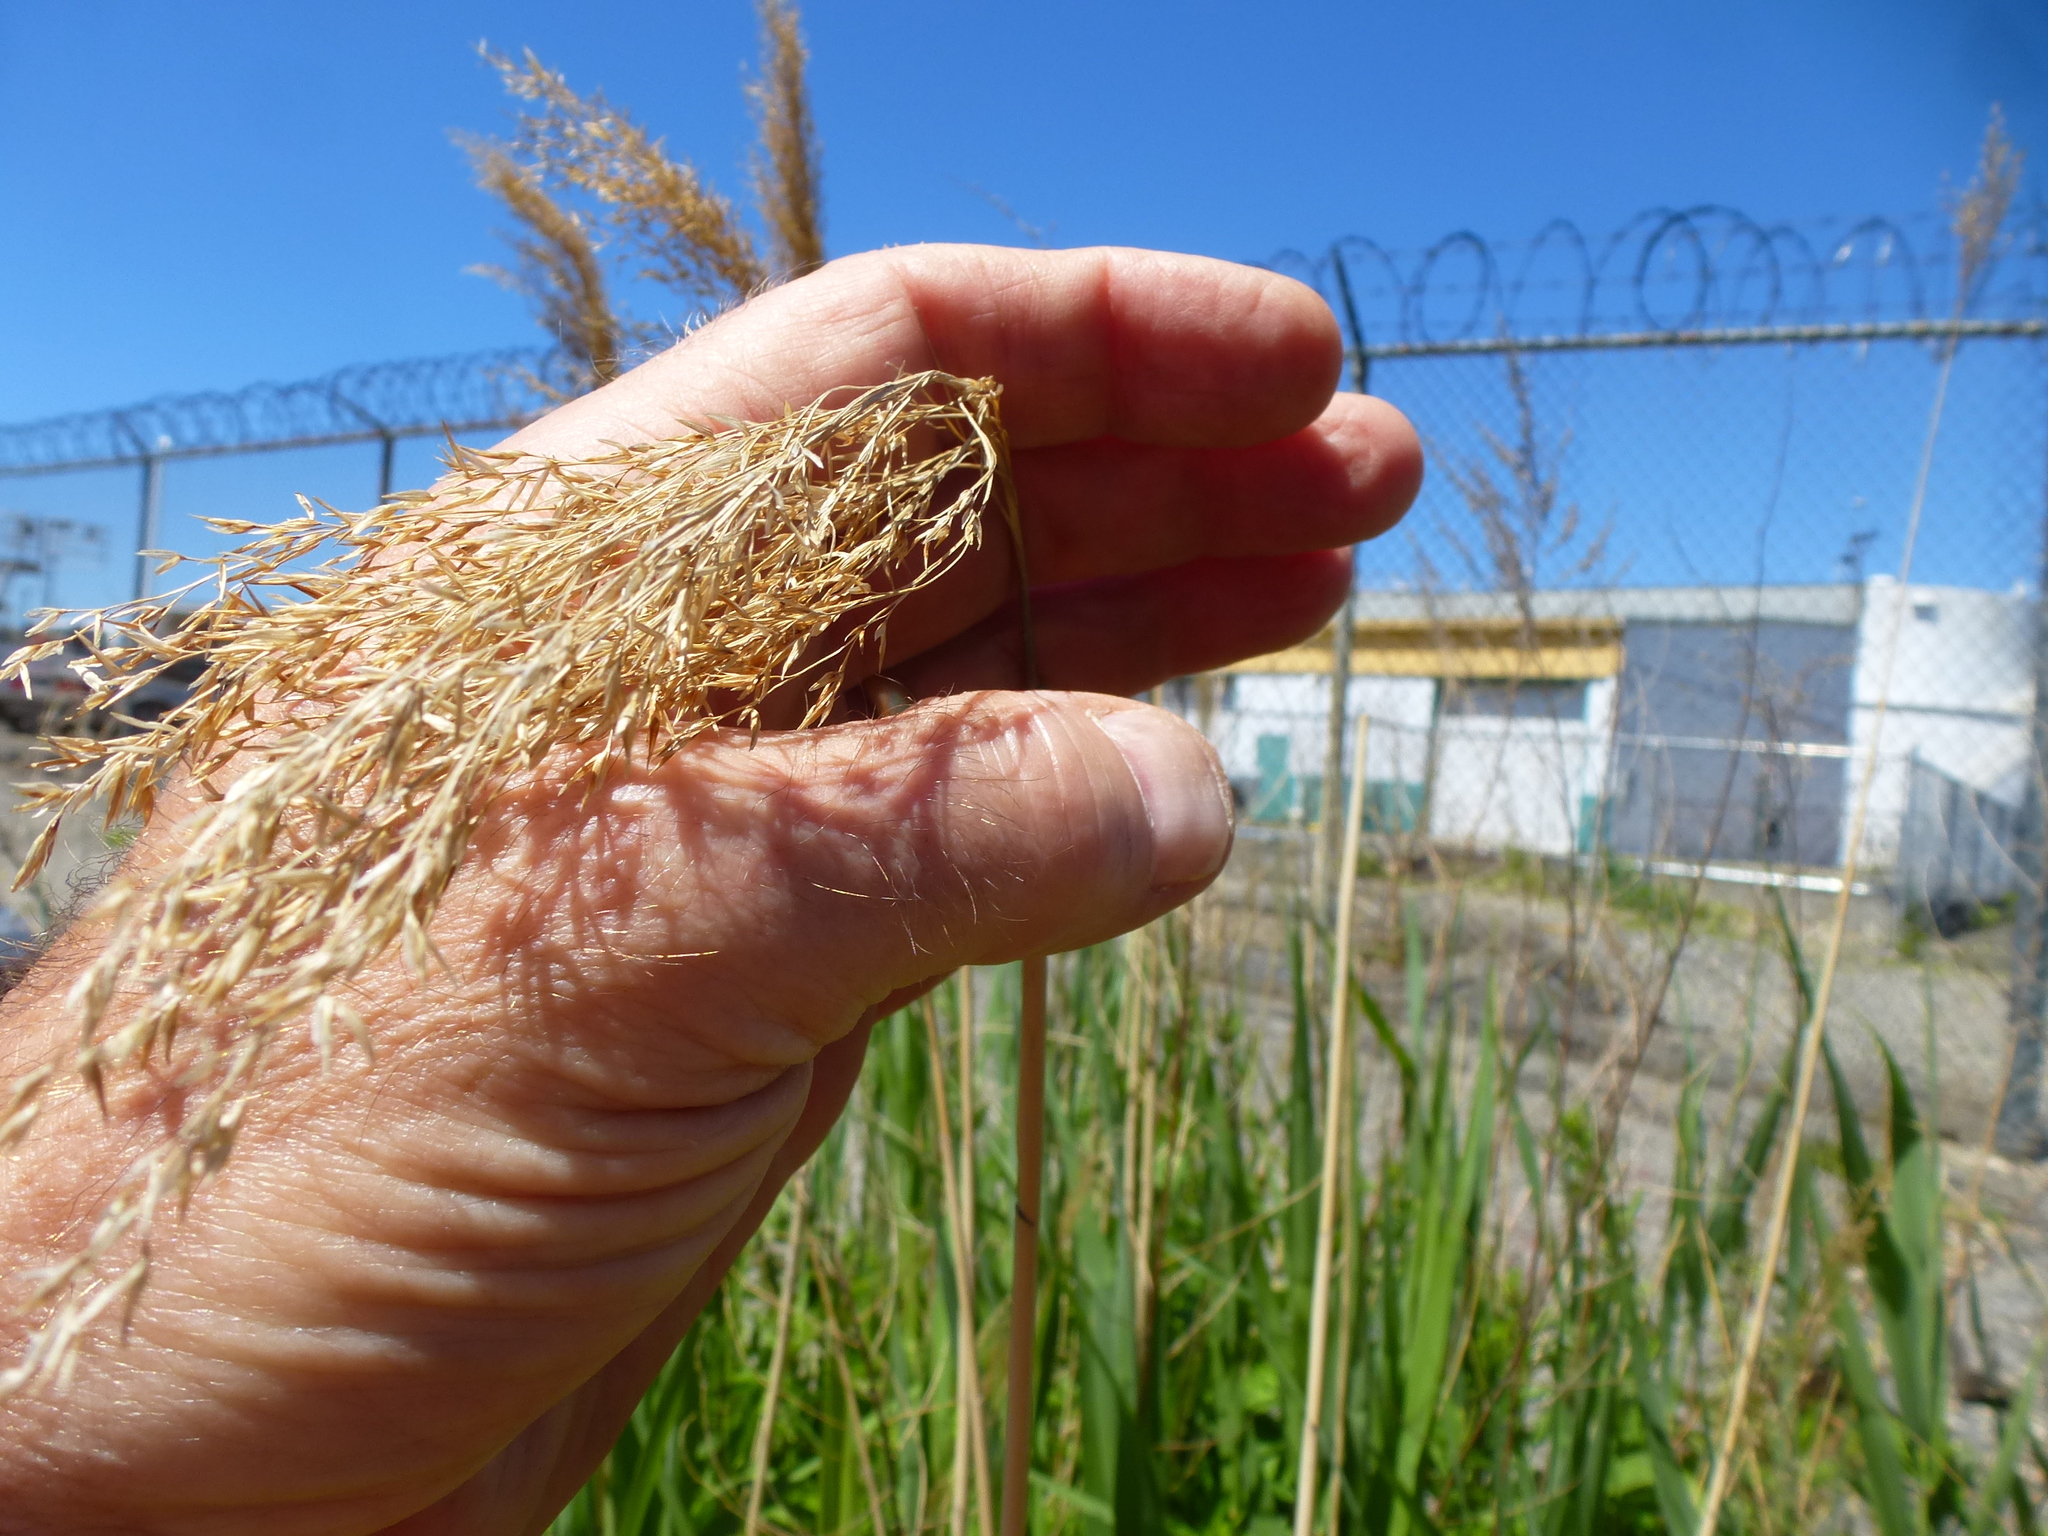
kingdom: Plantae
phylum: Tracheophyta
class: Liliopsida
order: Poales
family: Poaceae
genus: Phragmites
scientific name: Phragmites australis
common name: Common reed
